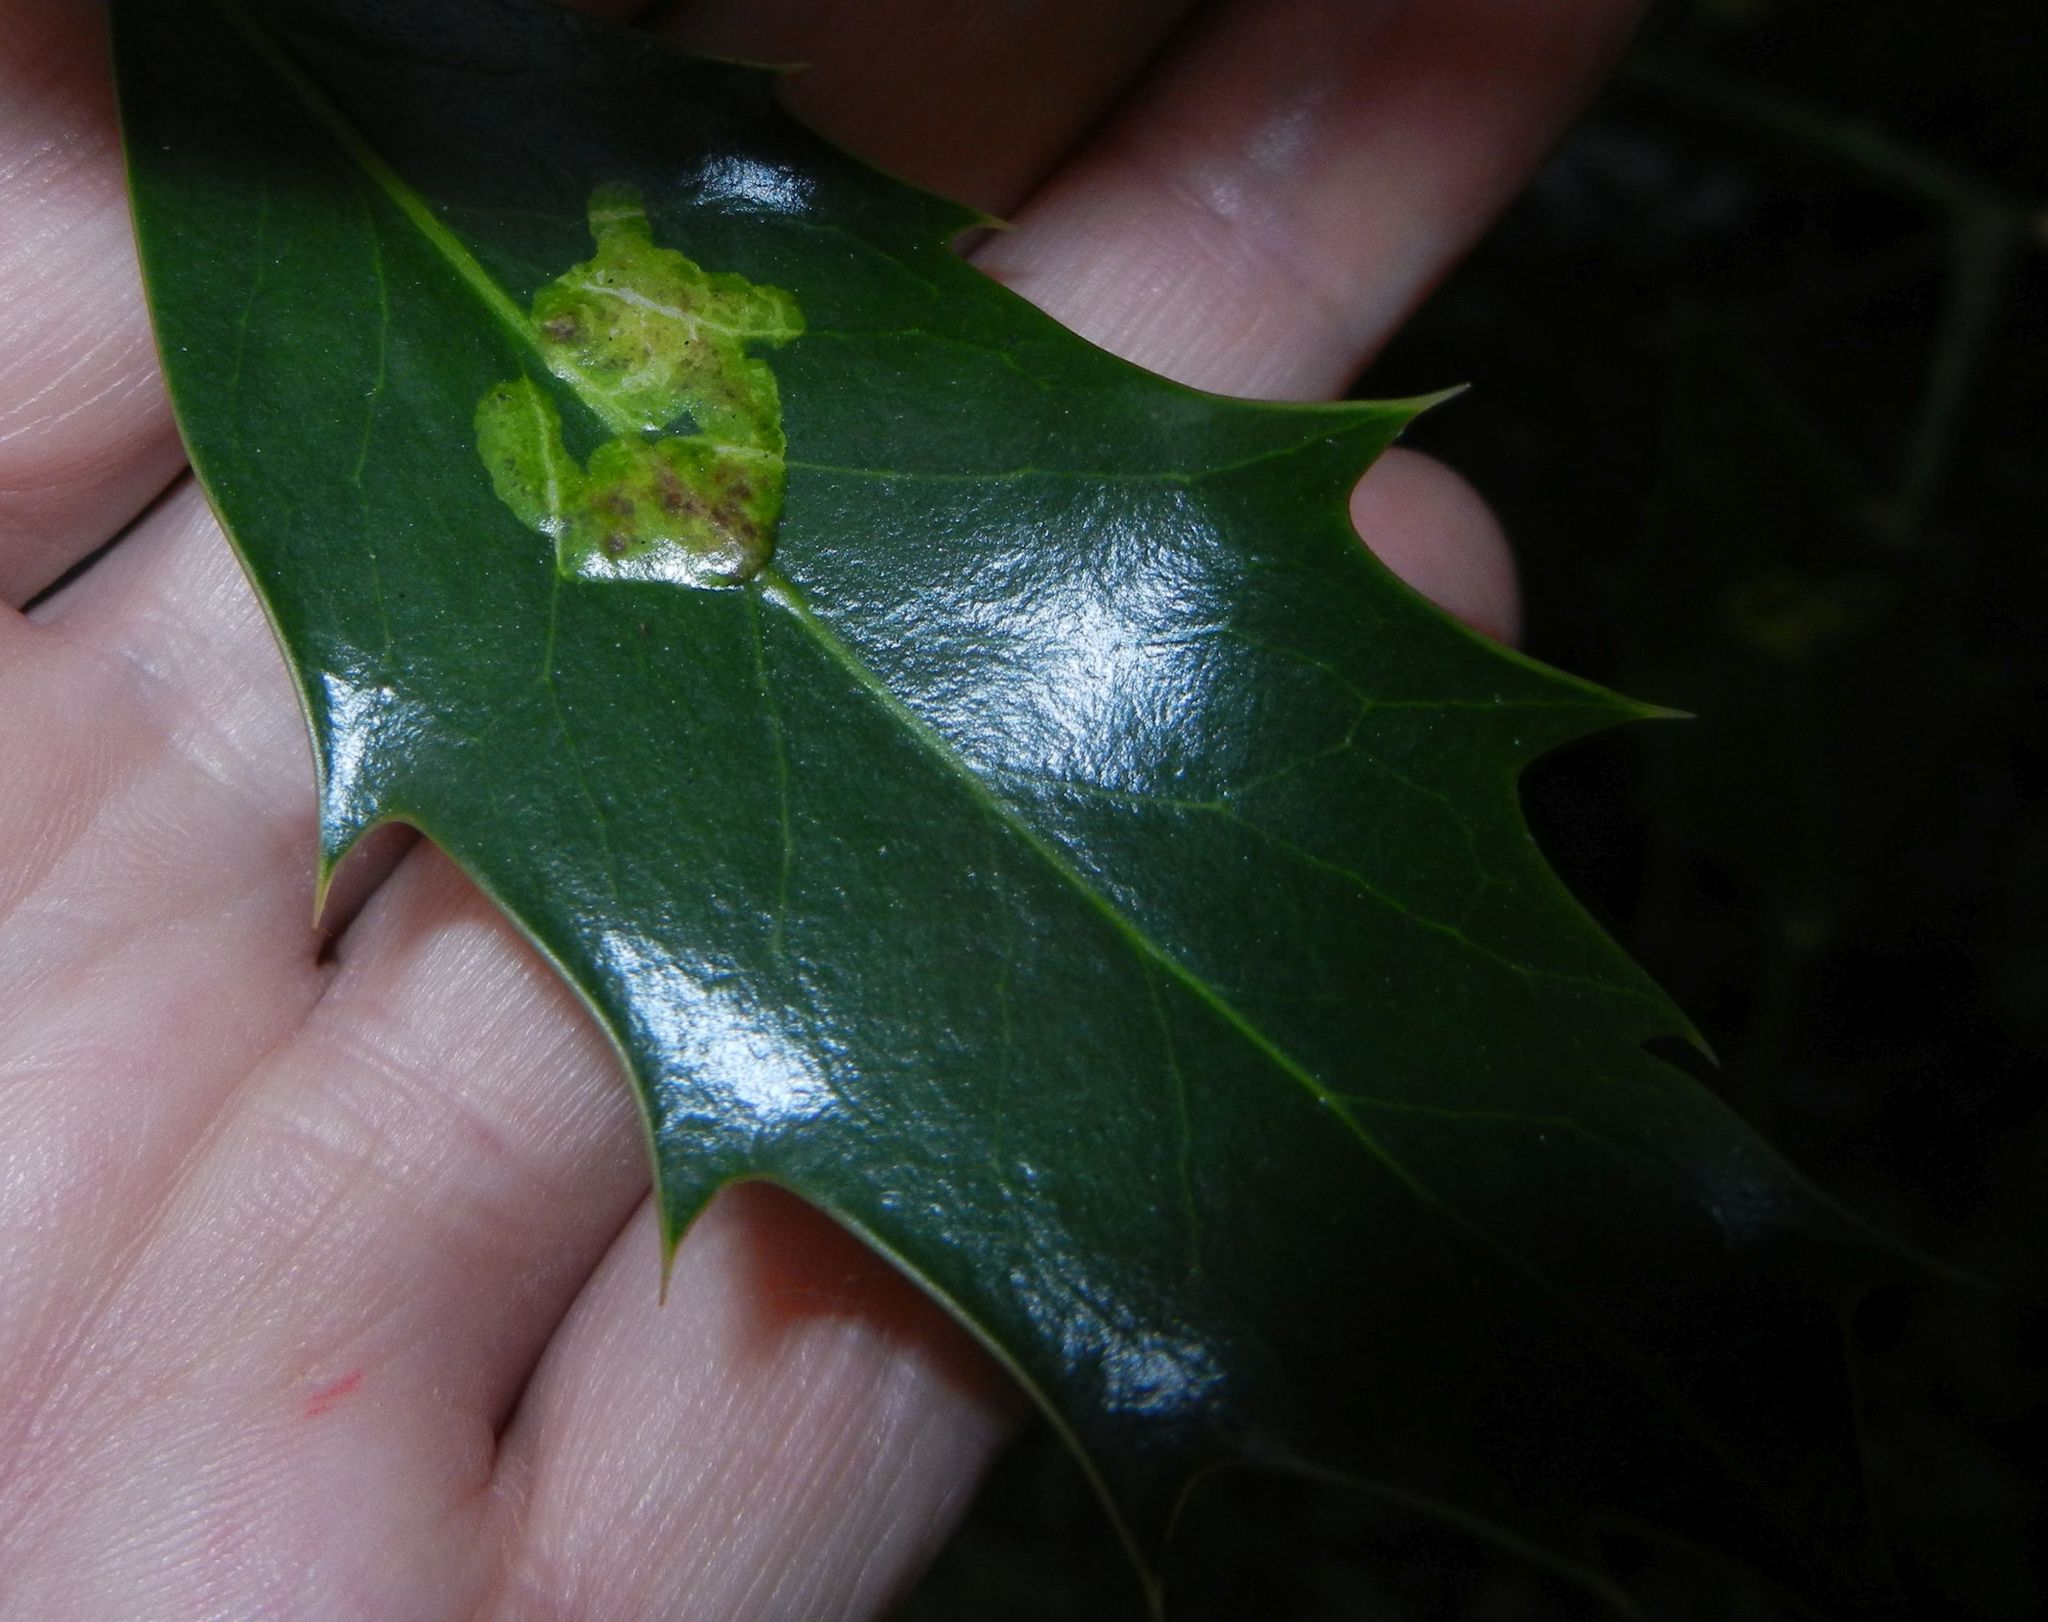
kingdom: Plantae
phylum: Tracheophyta
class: Magnoliopsida
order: Aquifoliales
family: Aquifoliaceae
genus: Ilex
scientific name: Ilex aquifolium
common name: English holly
